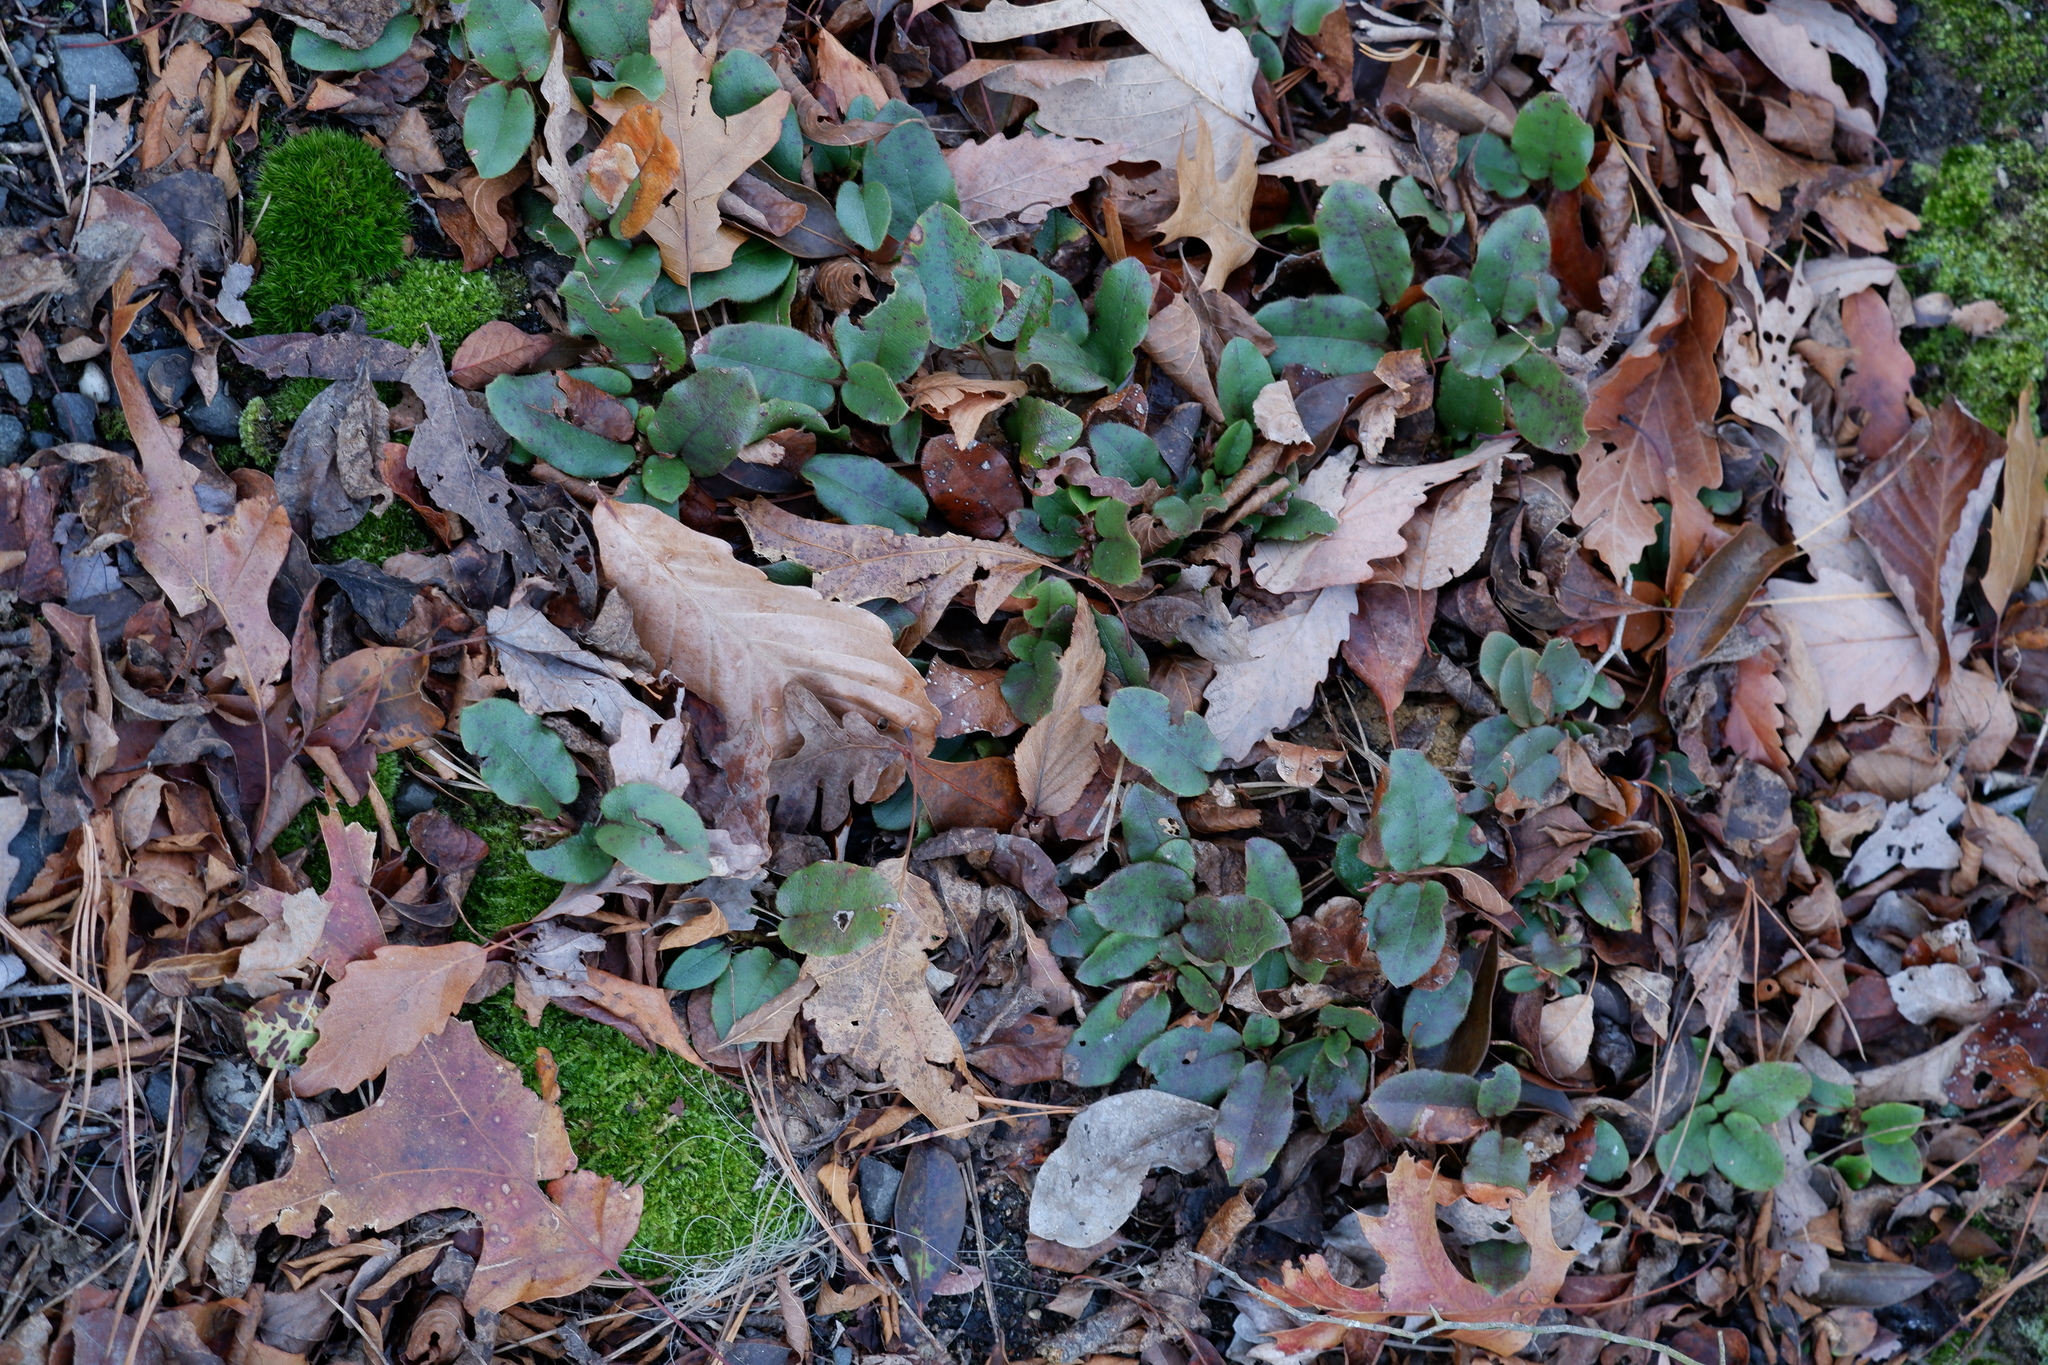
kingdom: Plantae
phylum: Tracheophyta
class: Magnoliopsida
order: Ericales
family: Ericaceae
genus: Epigaea
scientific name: Epigaea repens
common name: Gravelroot
